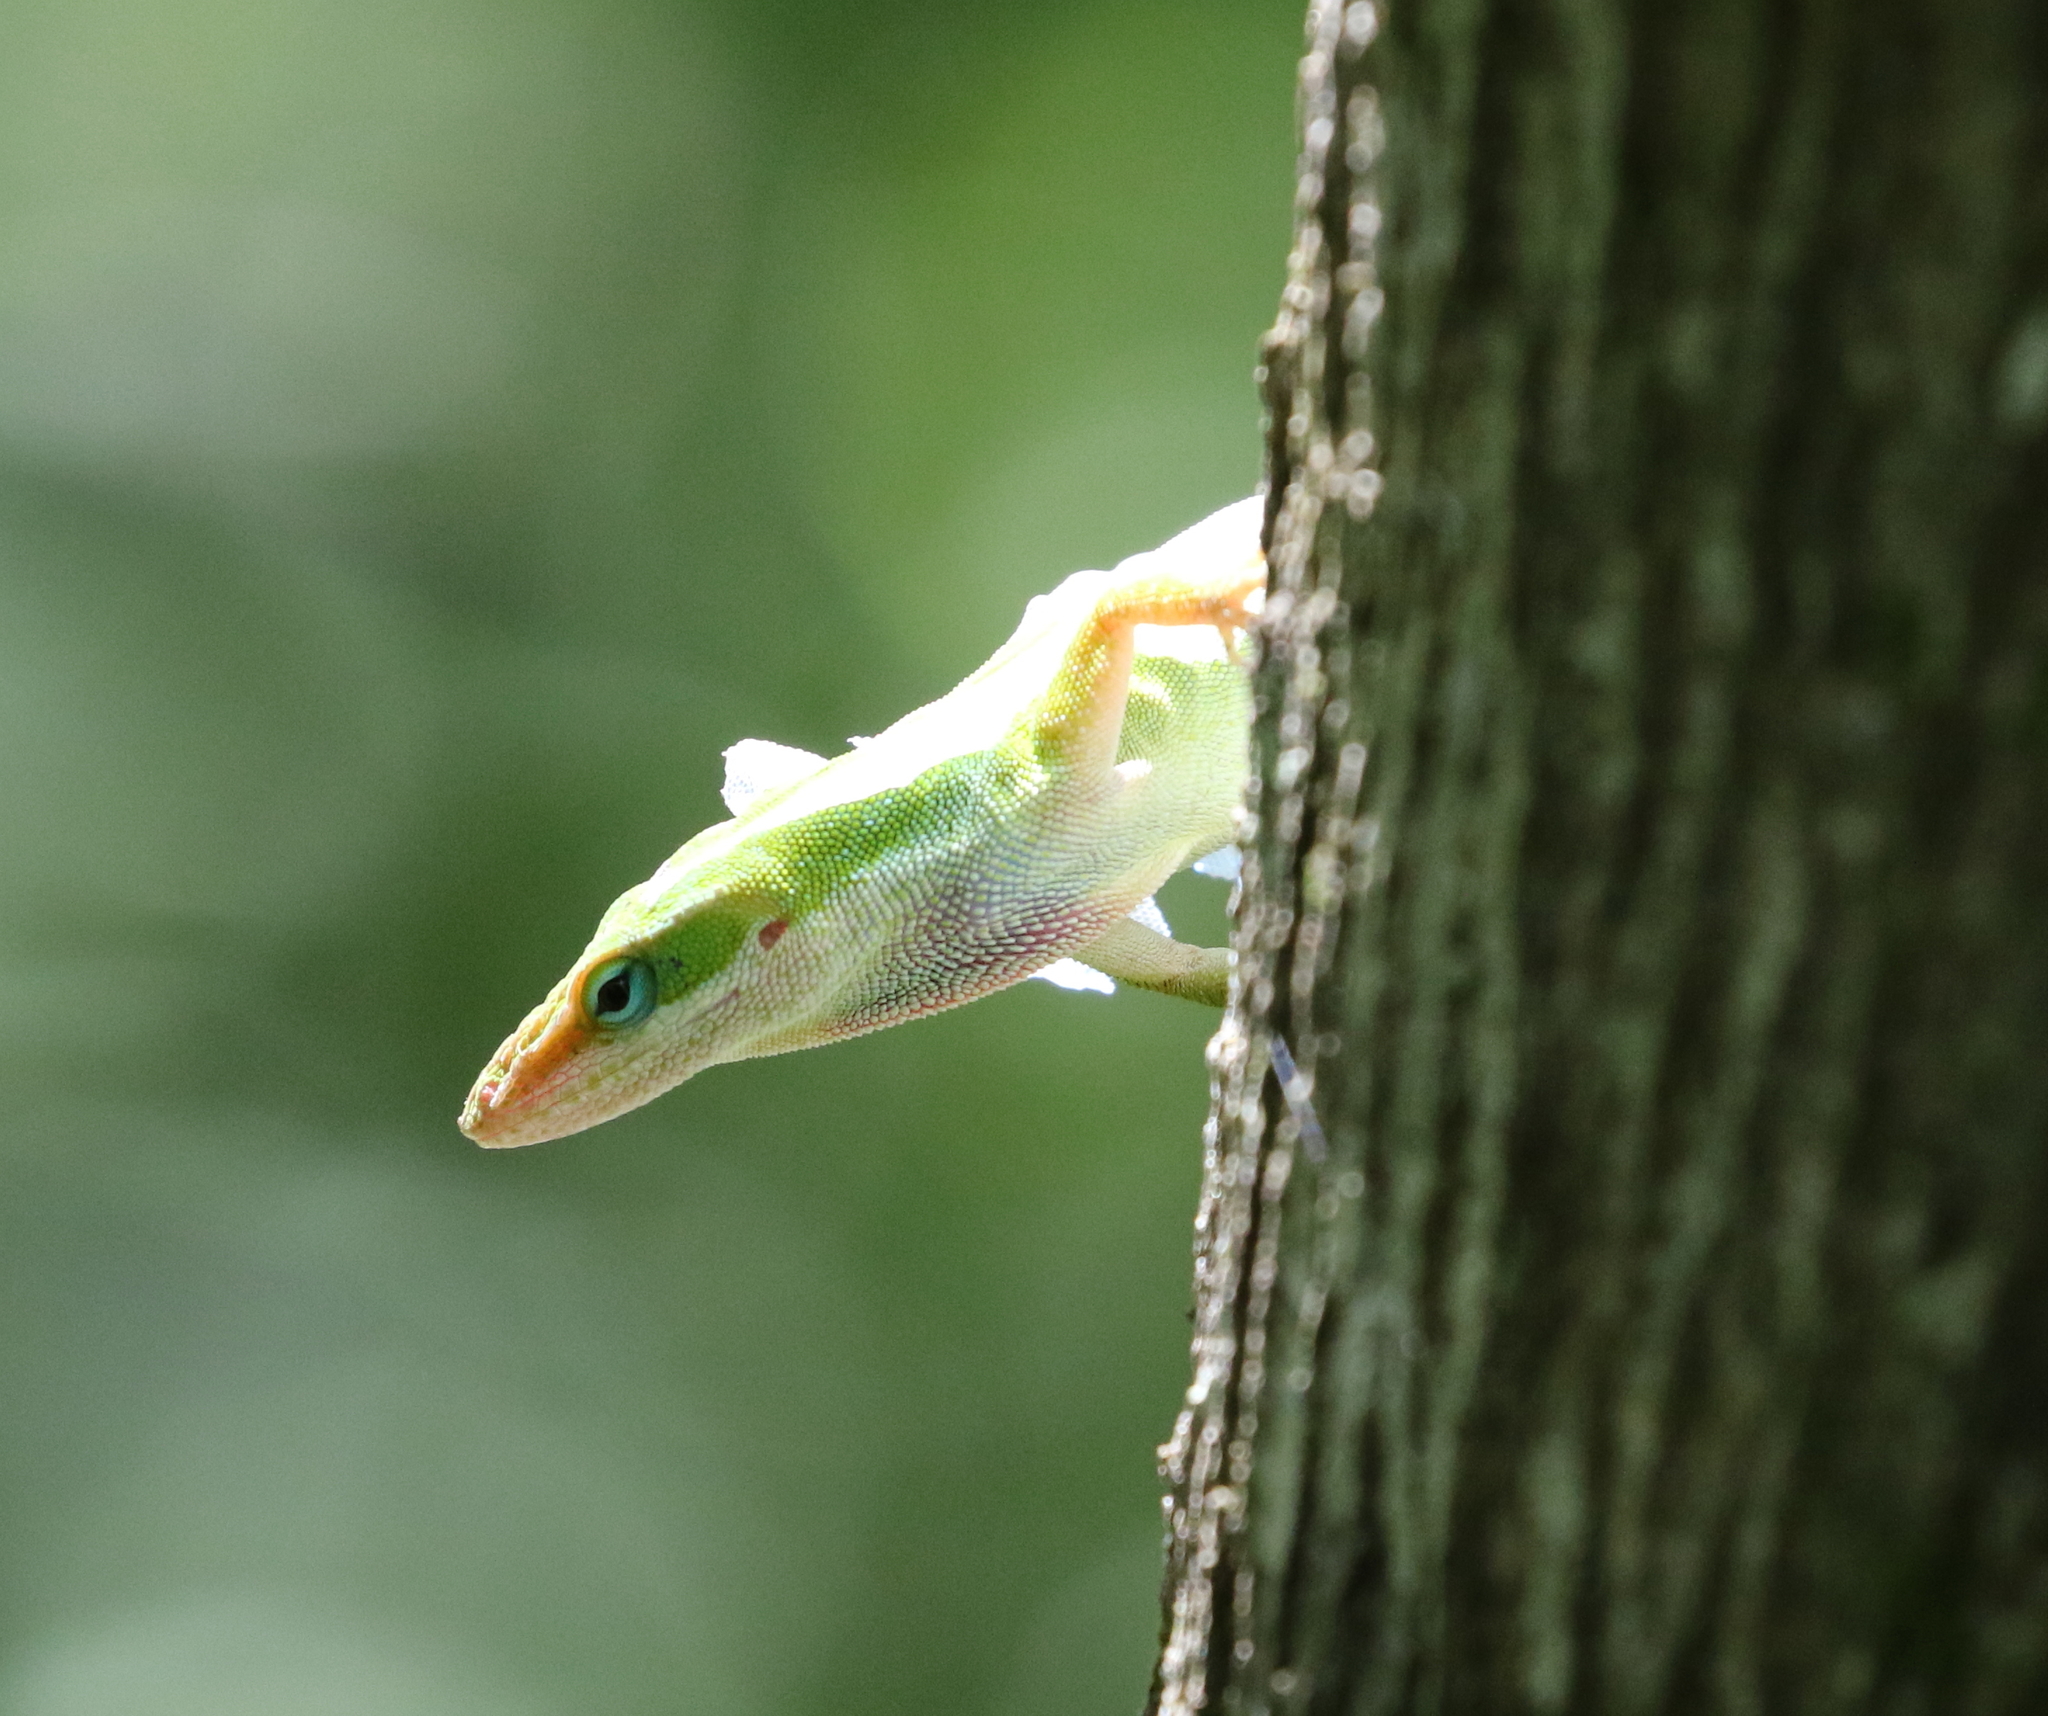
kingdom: Animalia
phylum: Chordata
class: Squamata
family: Dactyloidae
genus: Anolis
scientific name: Anolis carolinensis
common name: Green anole
